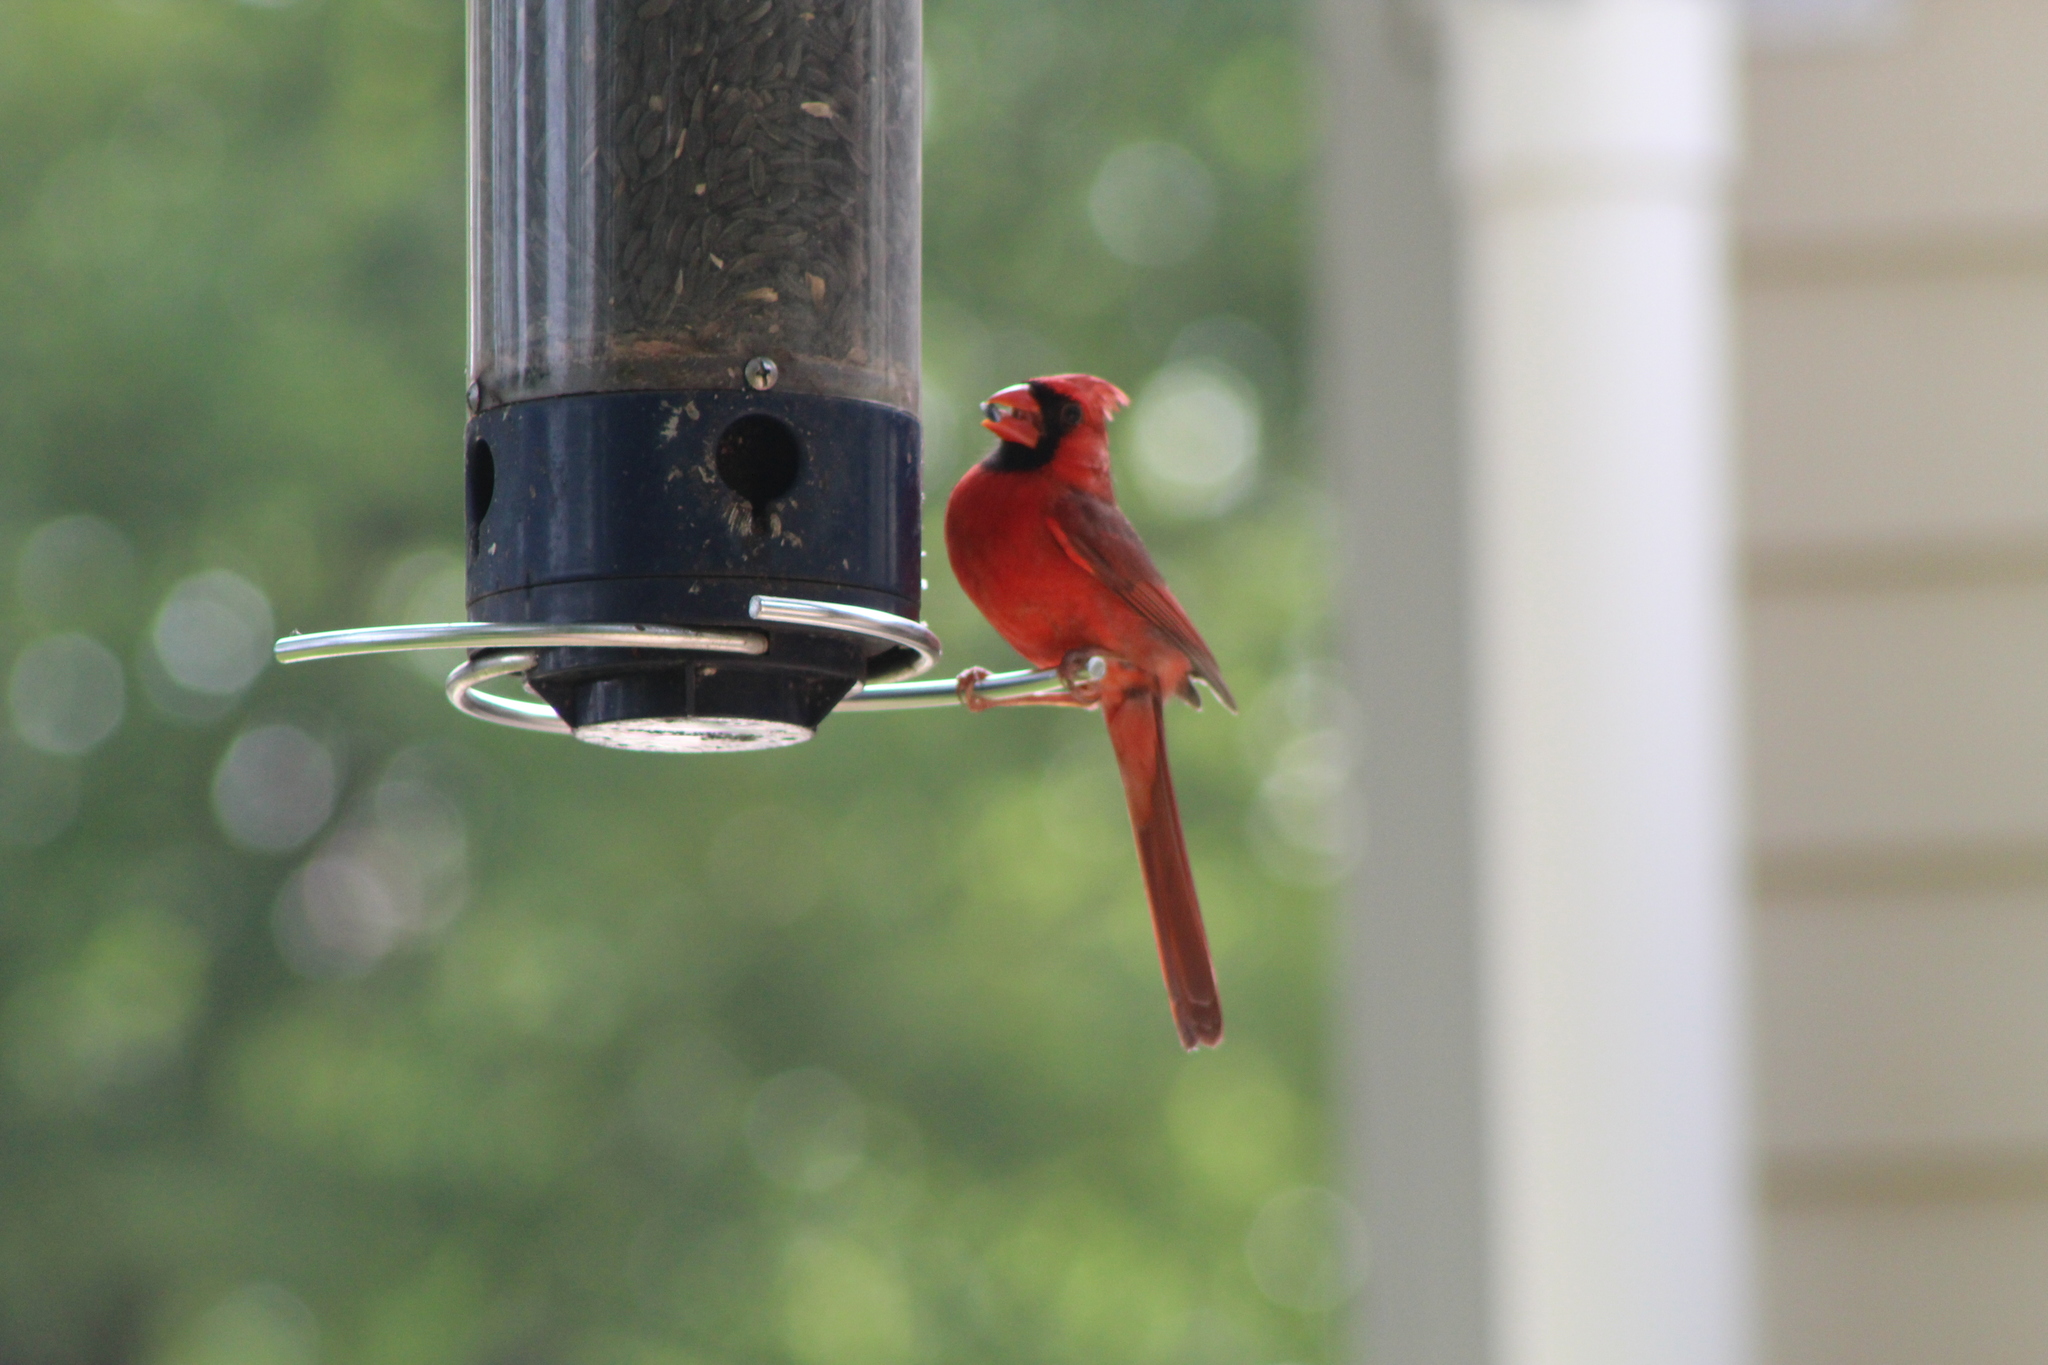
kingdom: Animalia
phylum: Chordata
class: Aves
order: Passeriformes
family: Cardinalidae
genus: Cardinalis
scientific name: Cardinalis cardinalis
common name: Northern cardinal
